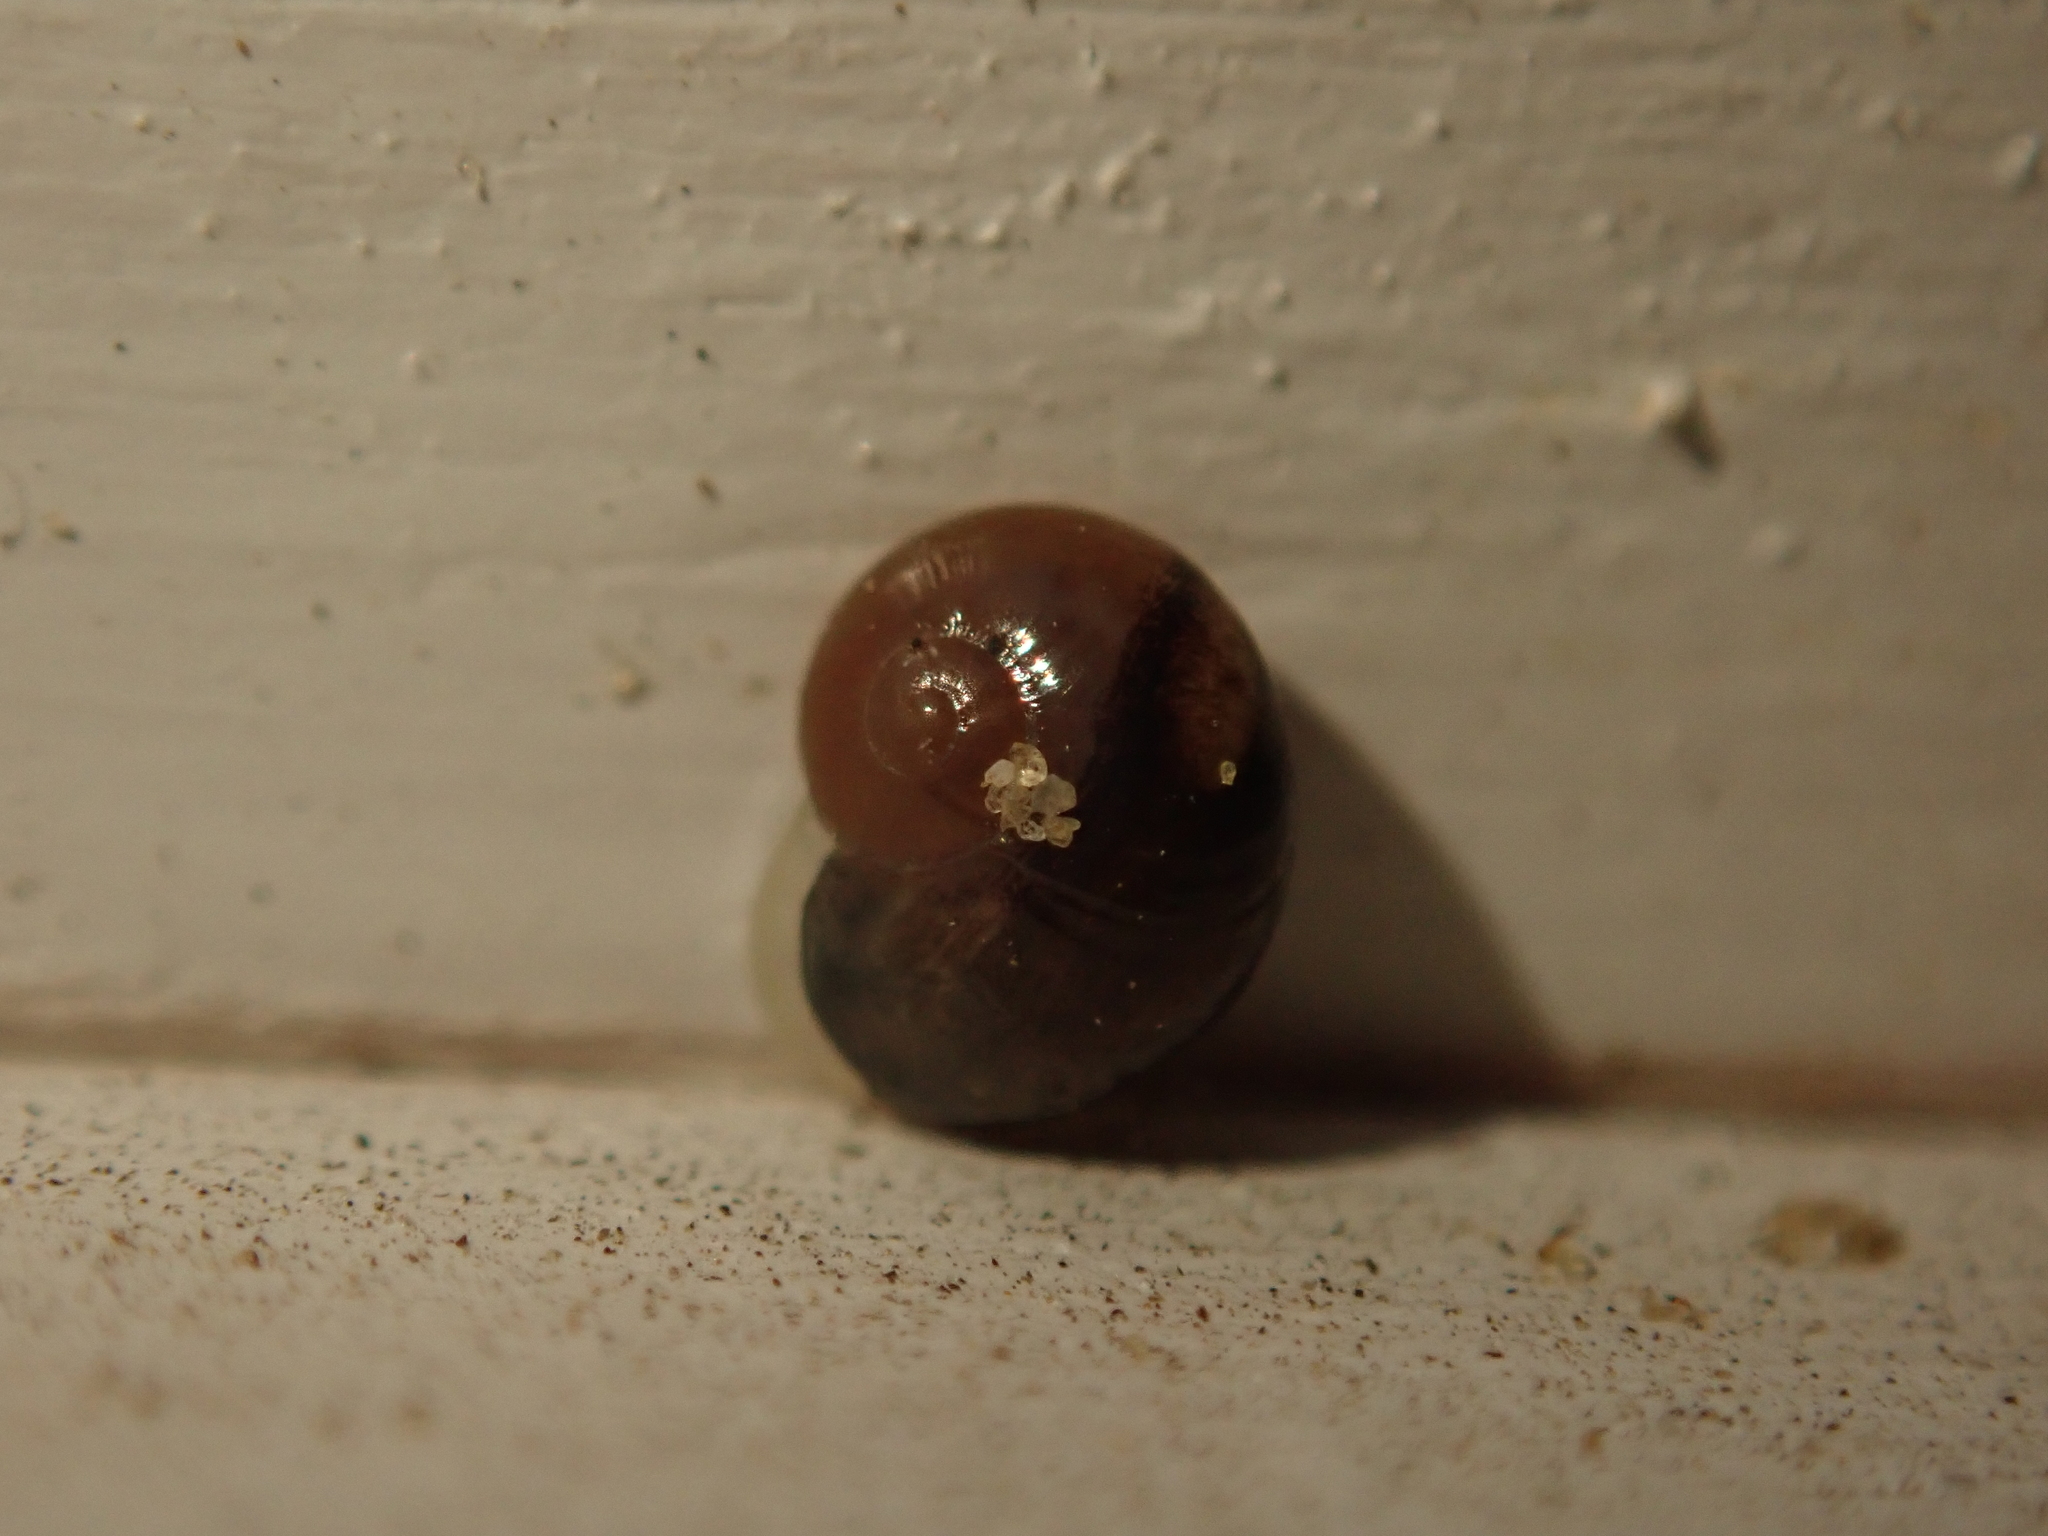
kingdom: Animalia
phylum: Mollusca
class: Gastropoda
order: Stylommatophora
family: Vitrinidae
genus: Vitrina
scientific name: Vitrina pellucida
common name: Pellucid glass snail
